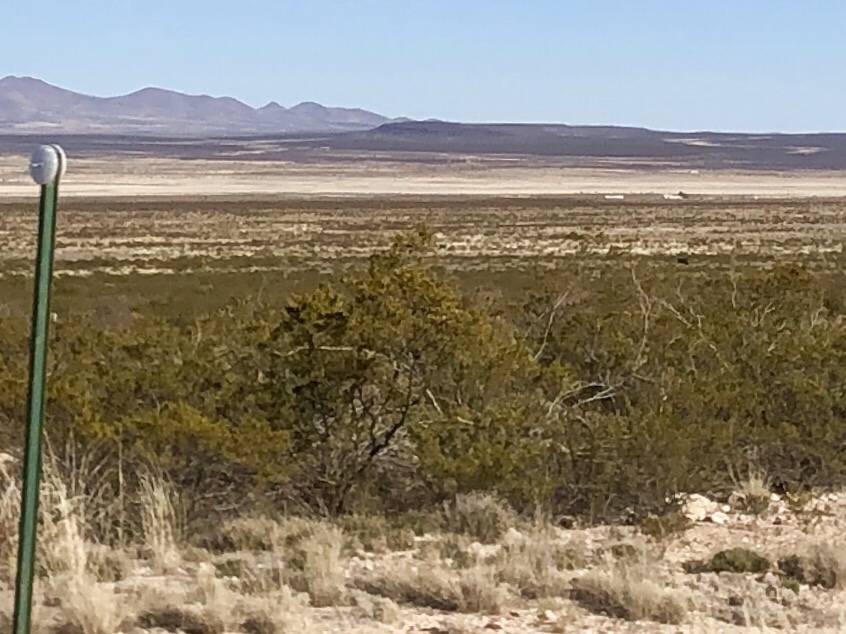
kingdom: Plantae
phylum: Tracheophyta
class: Magnoliopsida
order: Zygophyllales
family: Zygophyllaceae
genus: Larrea
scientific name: Larrea tridentata
